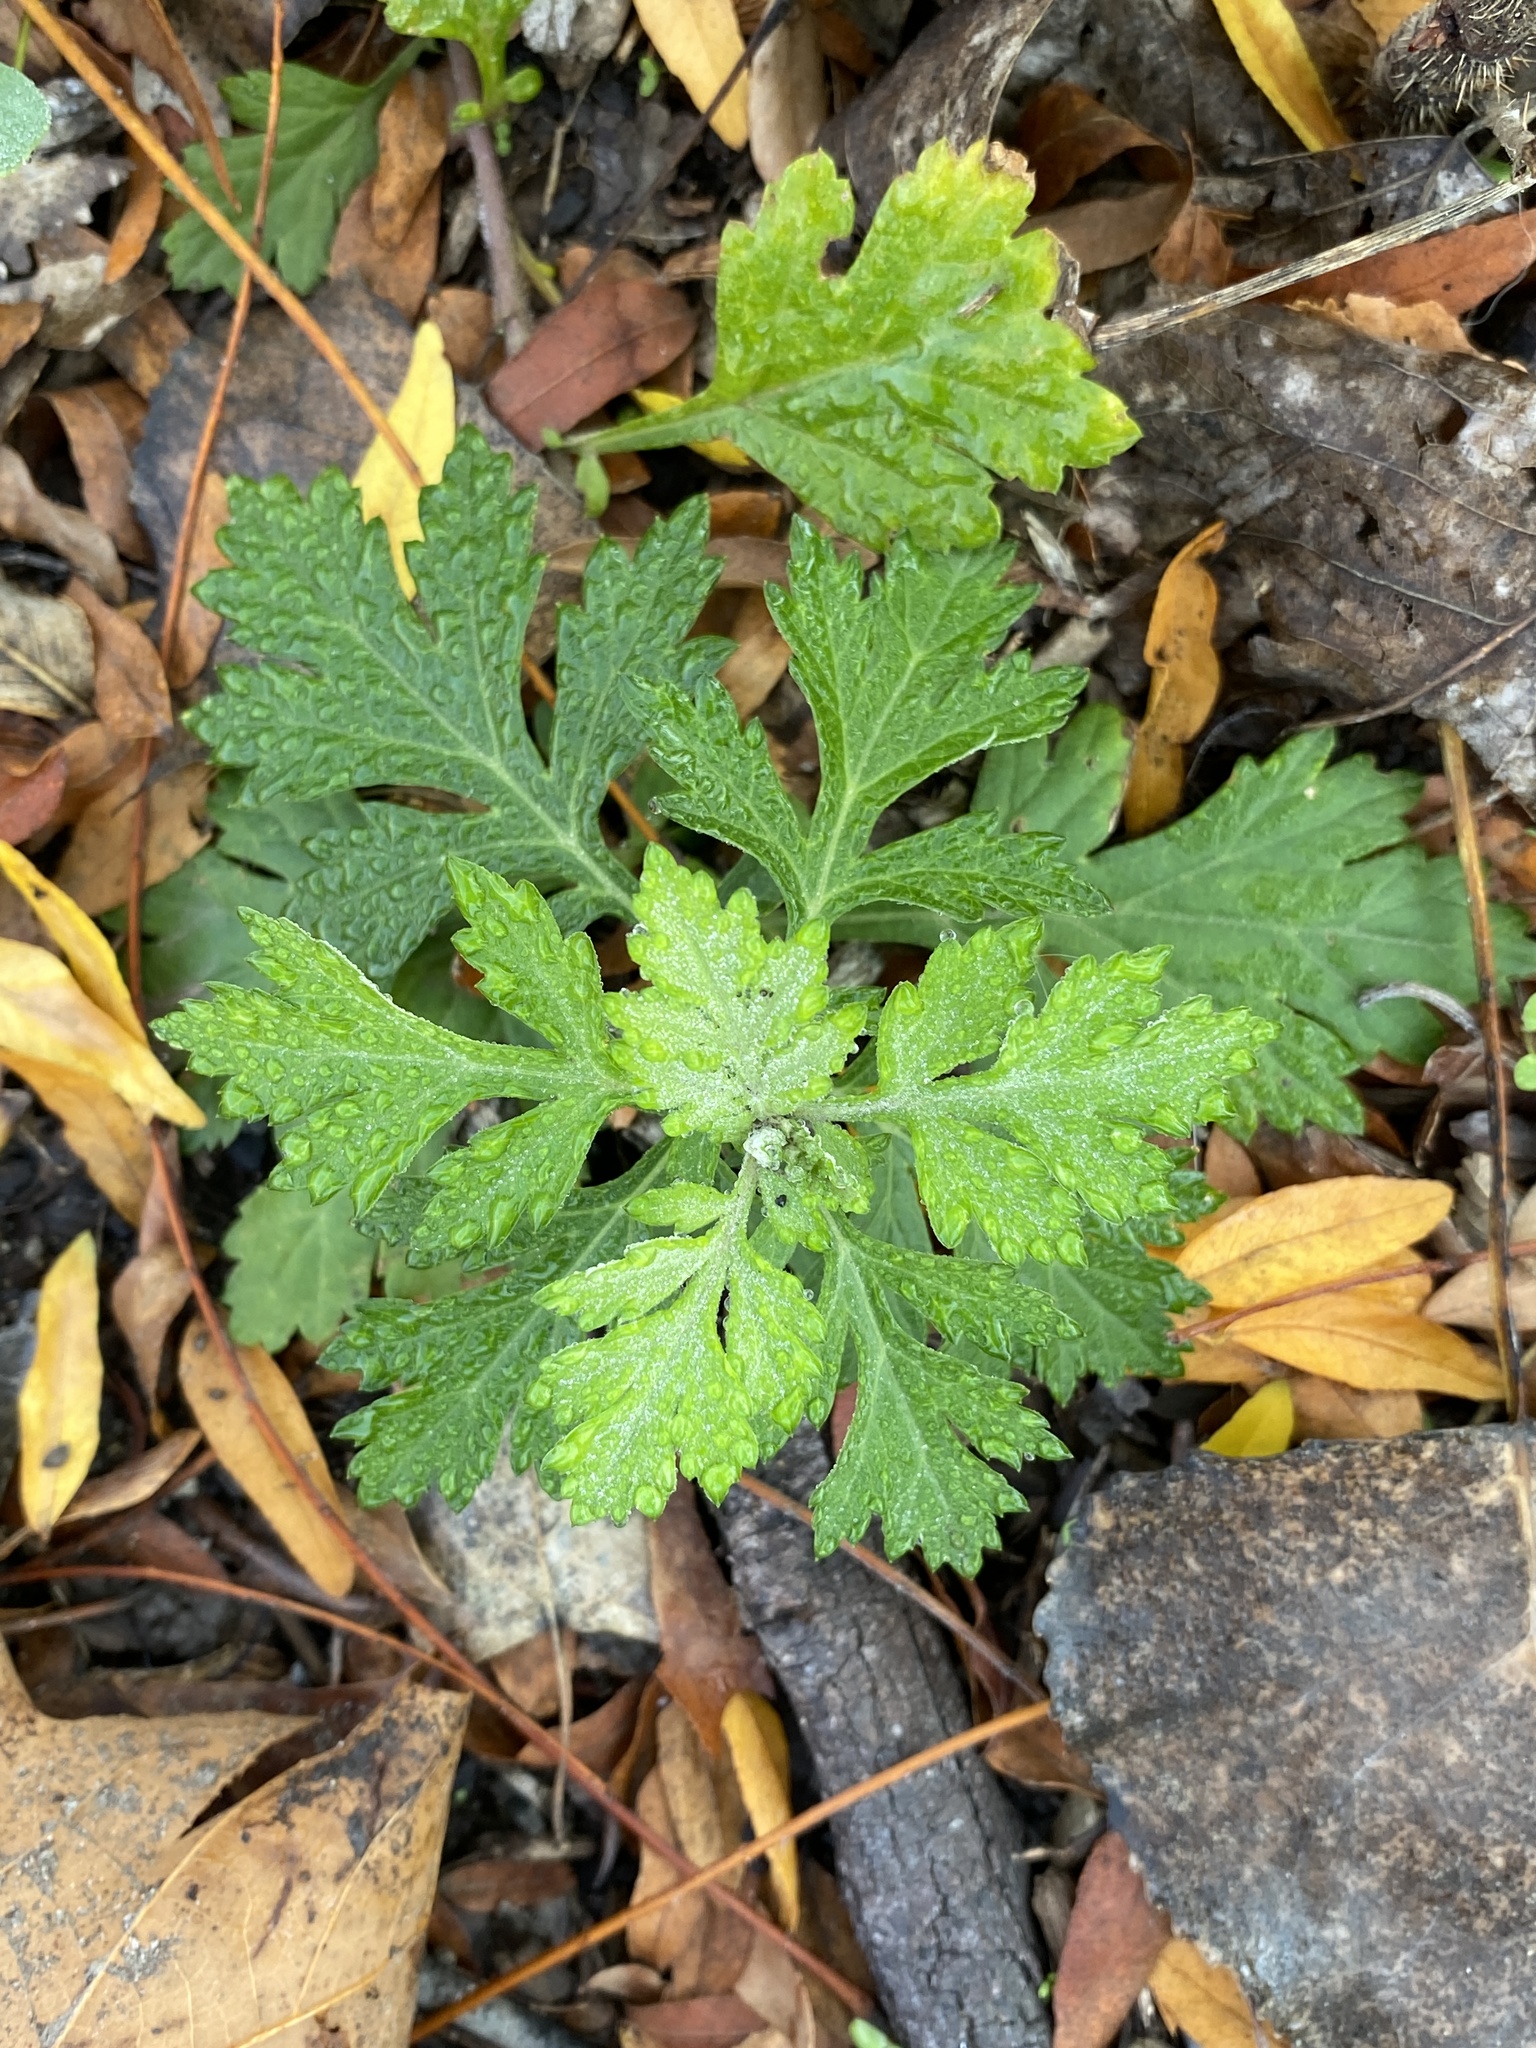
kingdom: Plantae
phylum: Tracheophyta
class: Magnoliopsida
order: Asterales
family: Asteraceae
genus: Artemisia
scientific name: Artemisia vulgaris
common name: Mugwort
